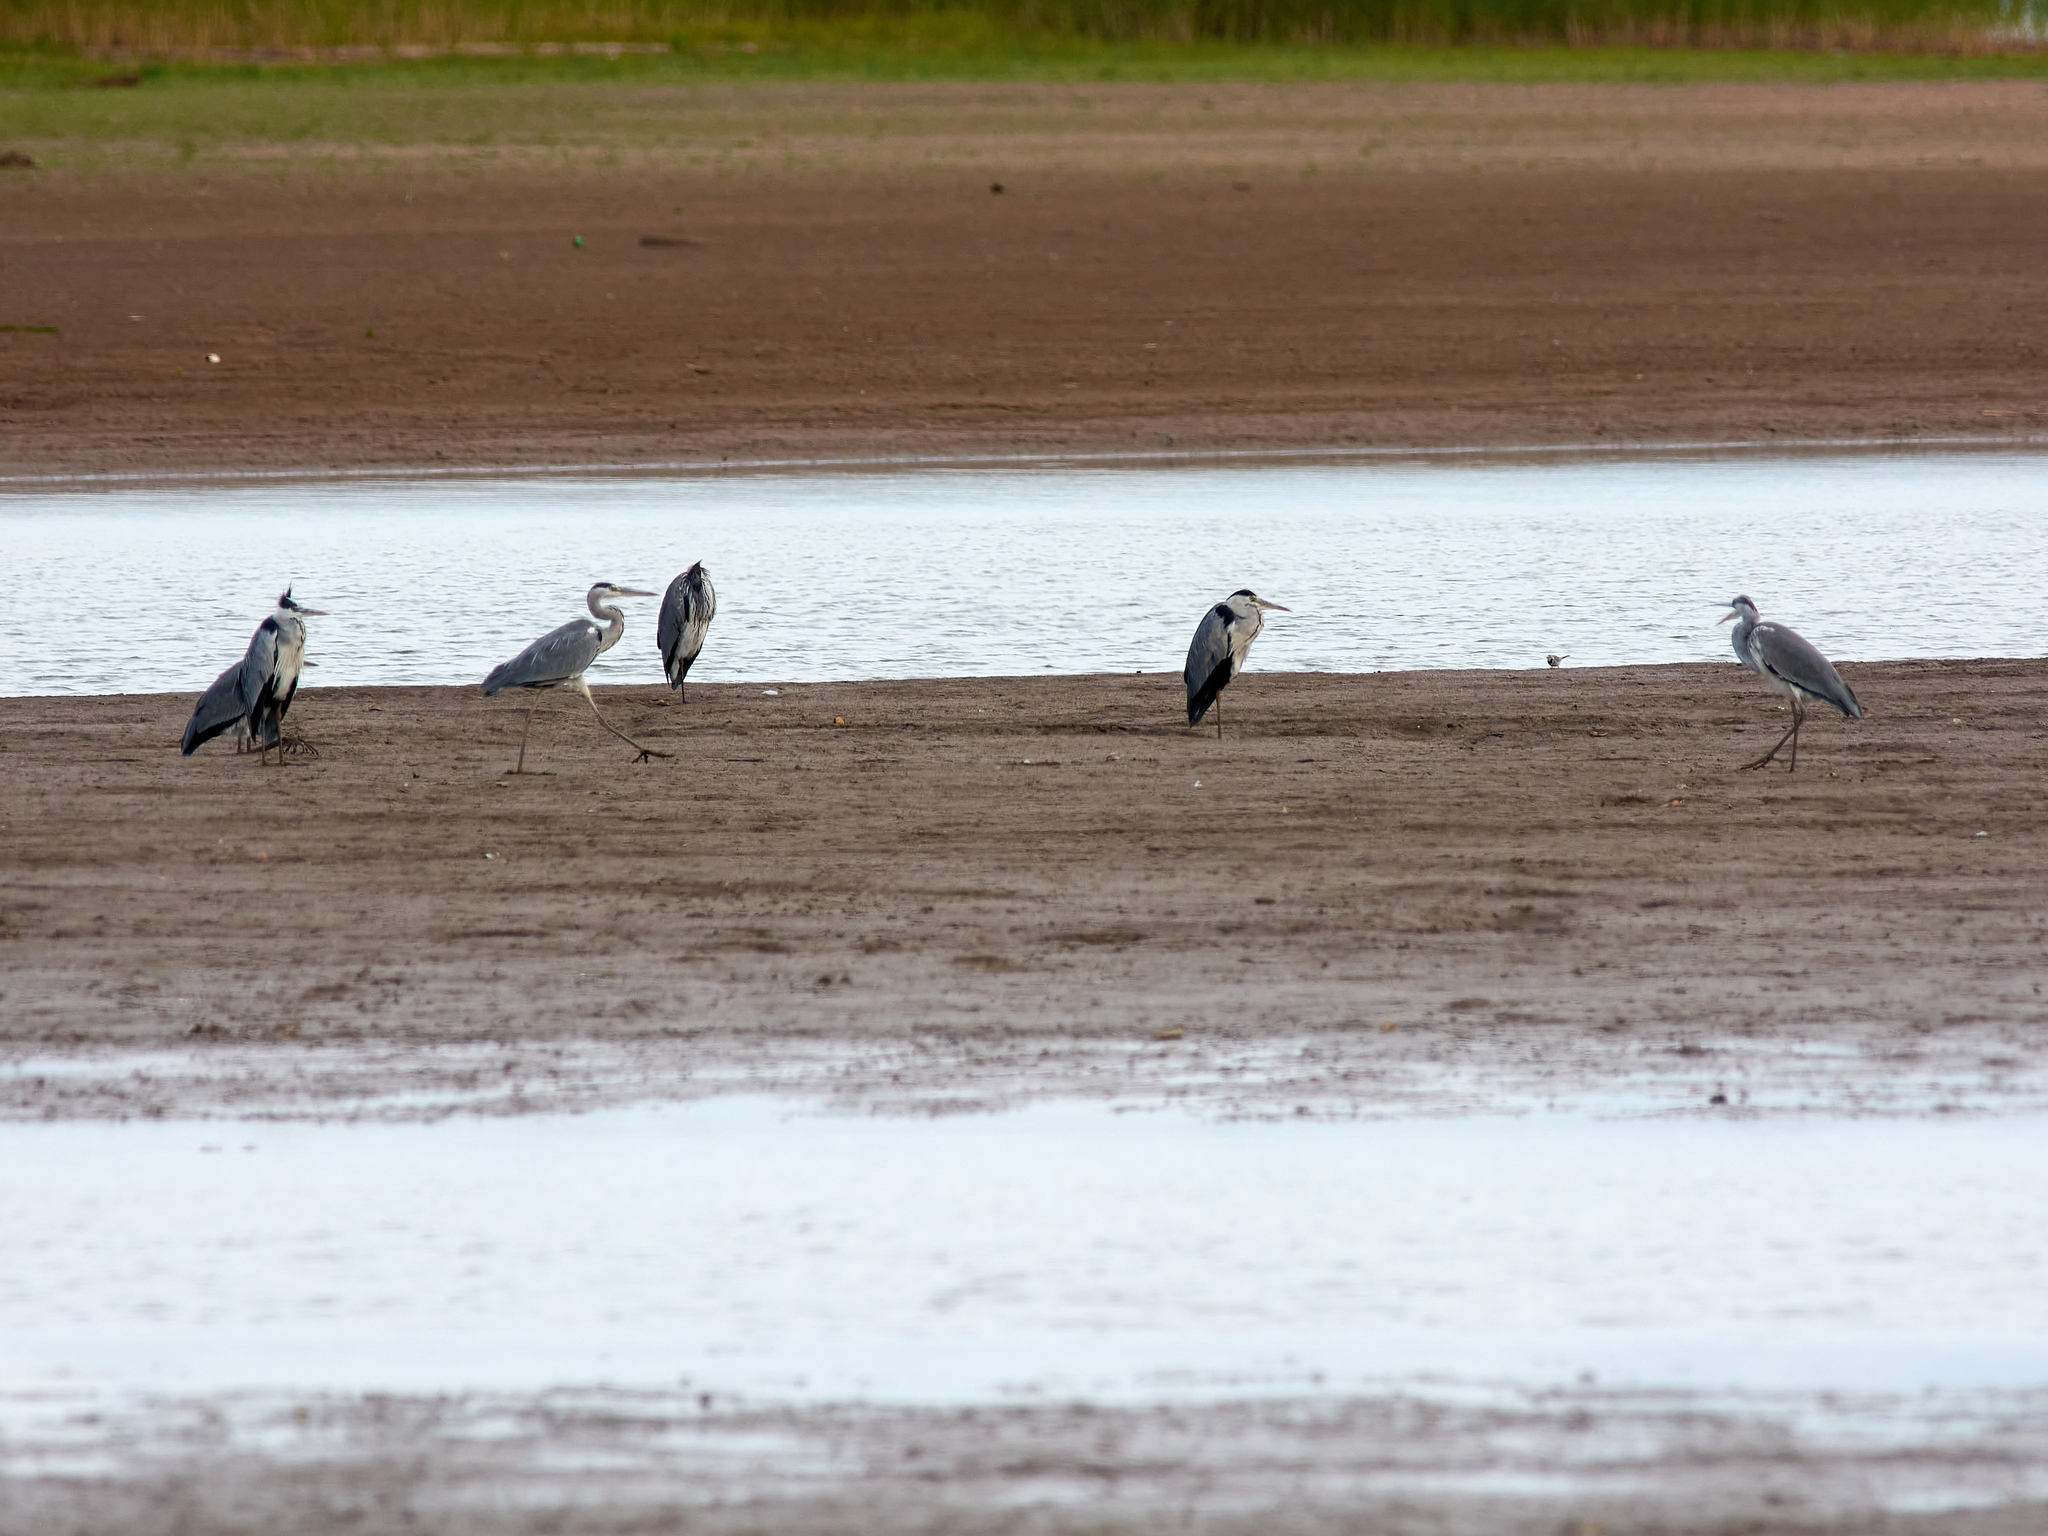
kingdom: Animalia
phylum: Chordata
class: Aves
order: Pelecaniformes
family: Ardeidae
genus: Ardea
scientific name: Ardea cinerea
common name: Grey heron
